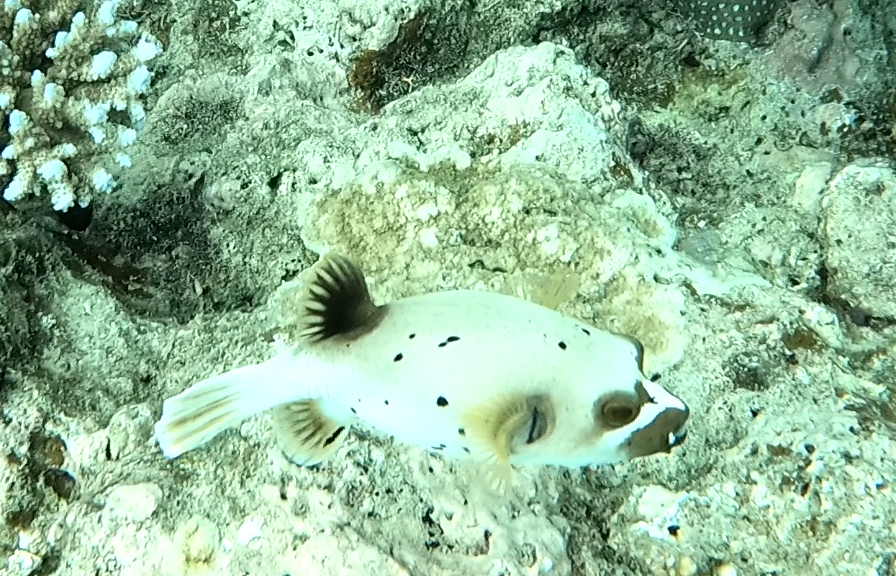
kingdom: Animalia
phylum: Chordata
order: Tetraodontiformes
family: Tetraodontidae
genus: Arothron
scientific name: Arothron nigropunctatus
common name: Black spotted blow fish
